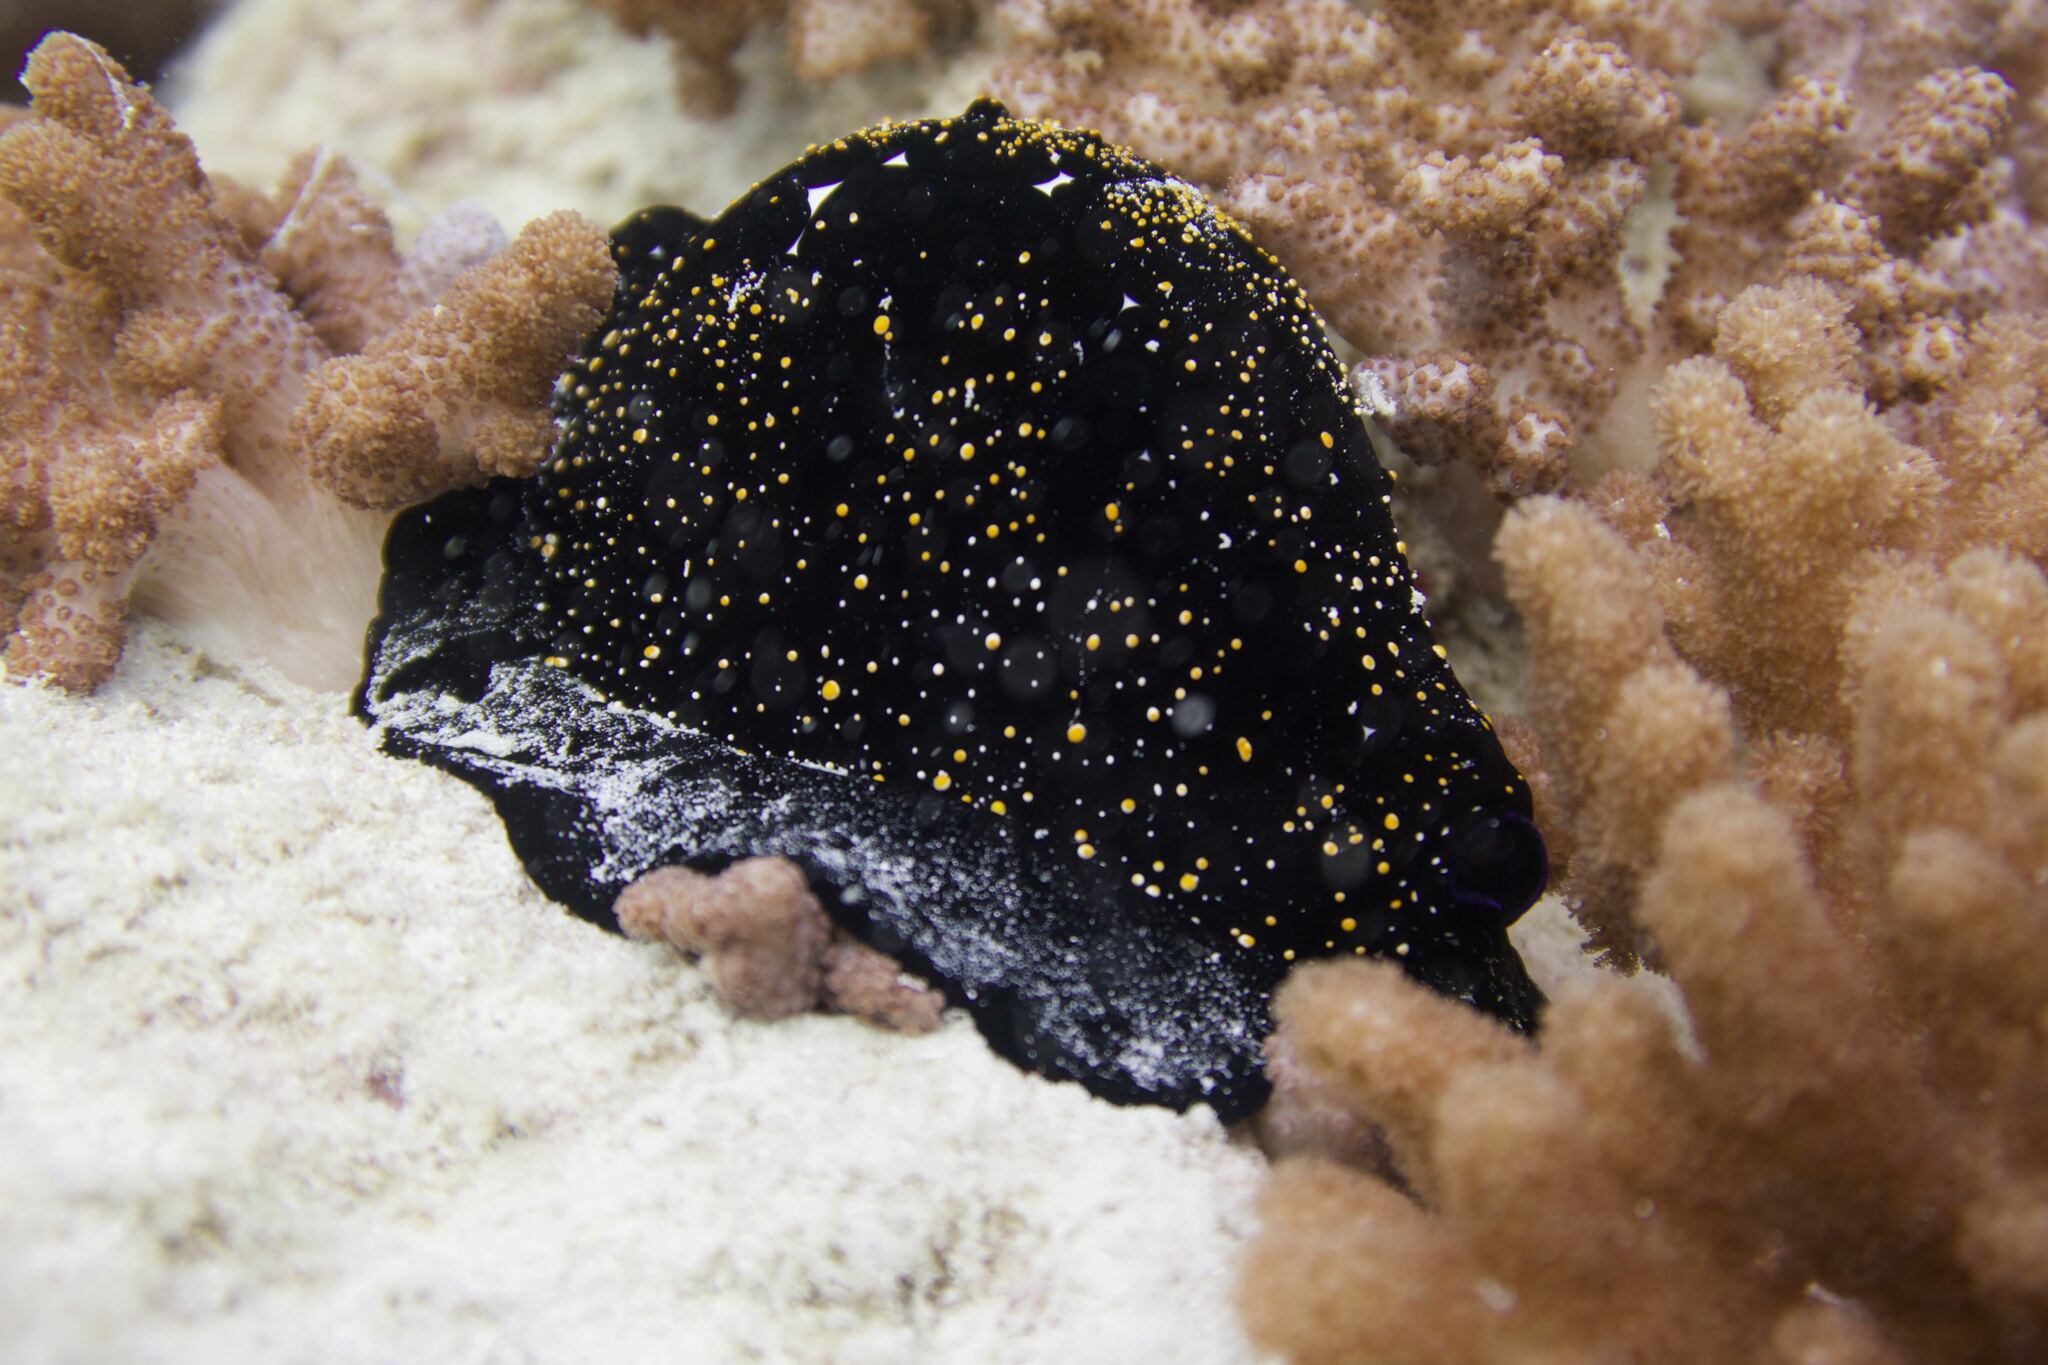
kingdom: Animalia
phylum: Mollusca
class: Gastropoda
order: Littorinimorpha
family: Ovulidae
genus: Ovula
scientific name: Ovula ovum
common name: Common egg cowrie
